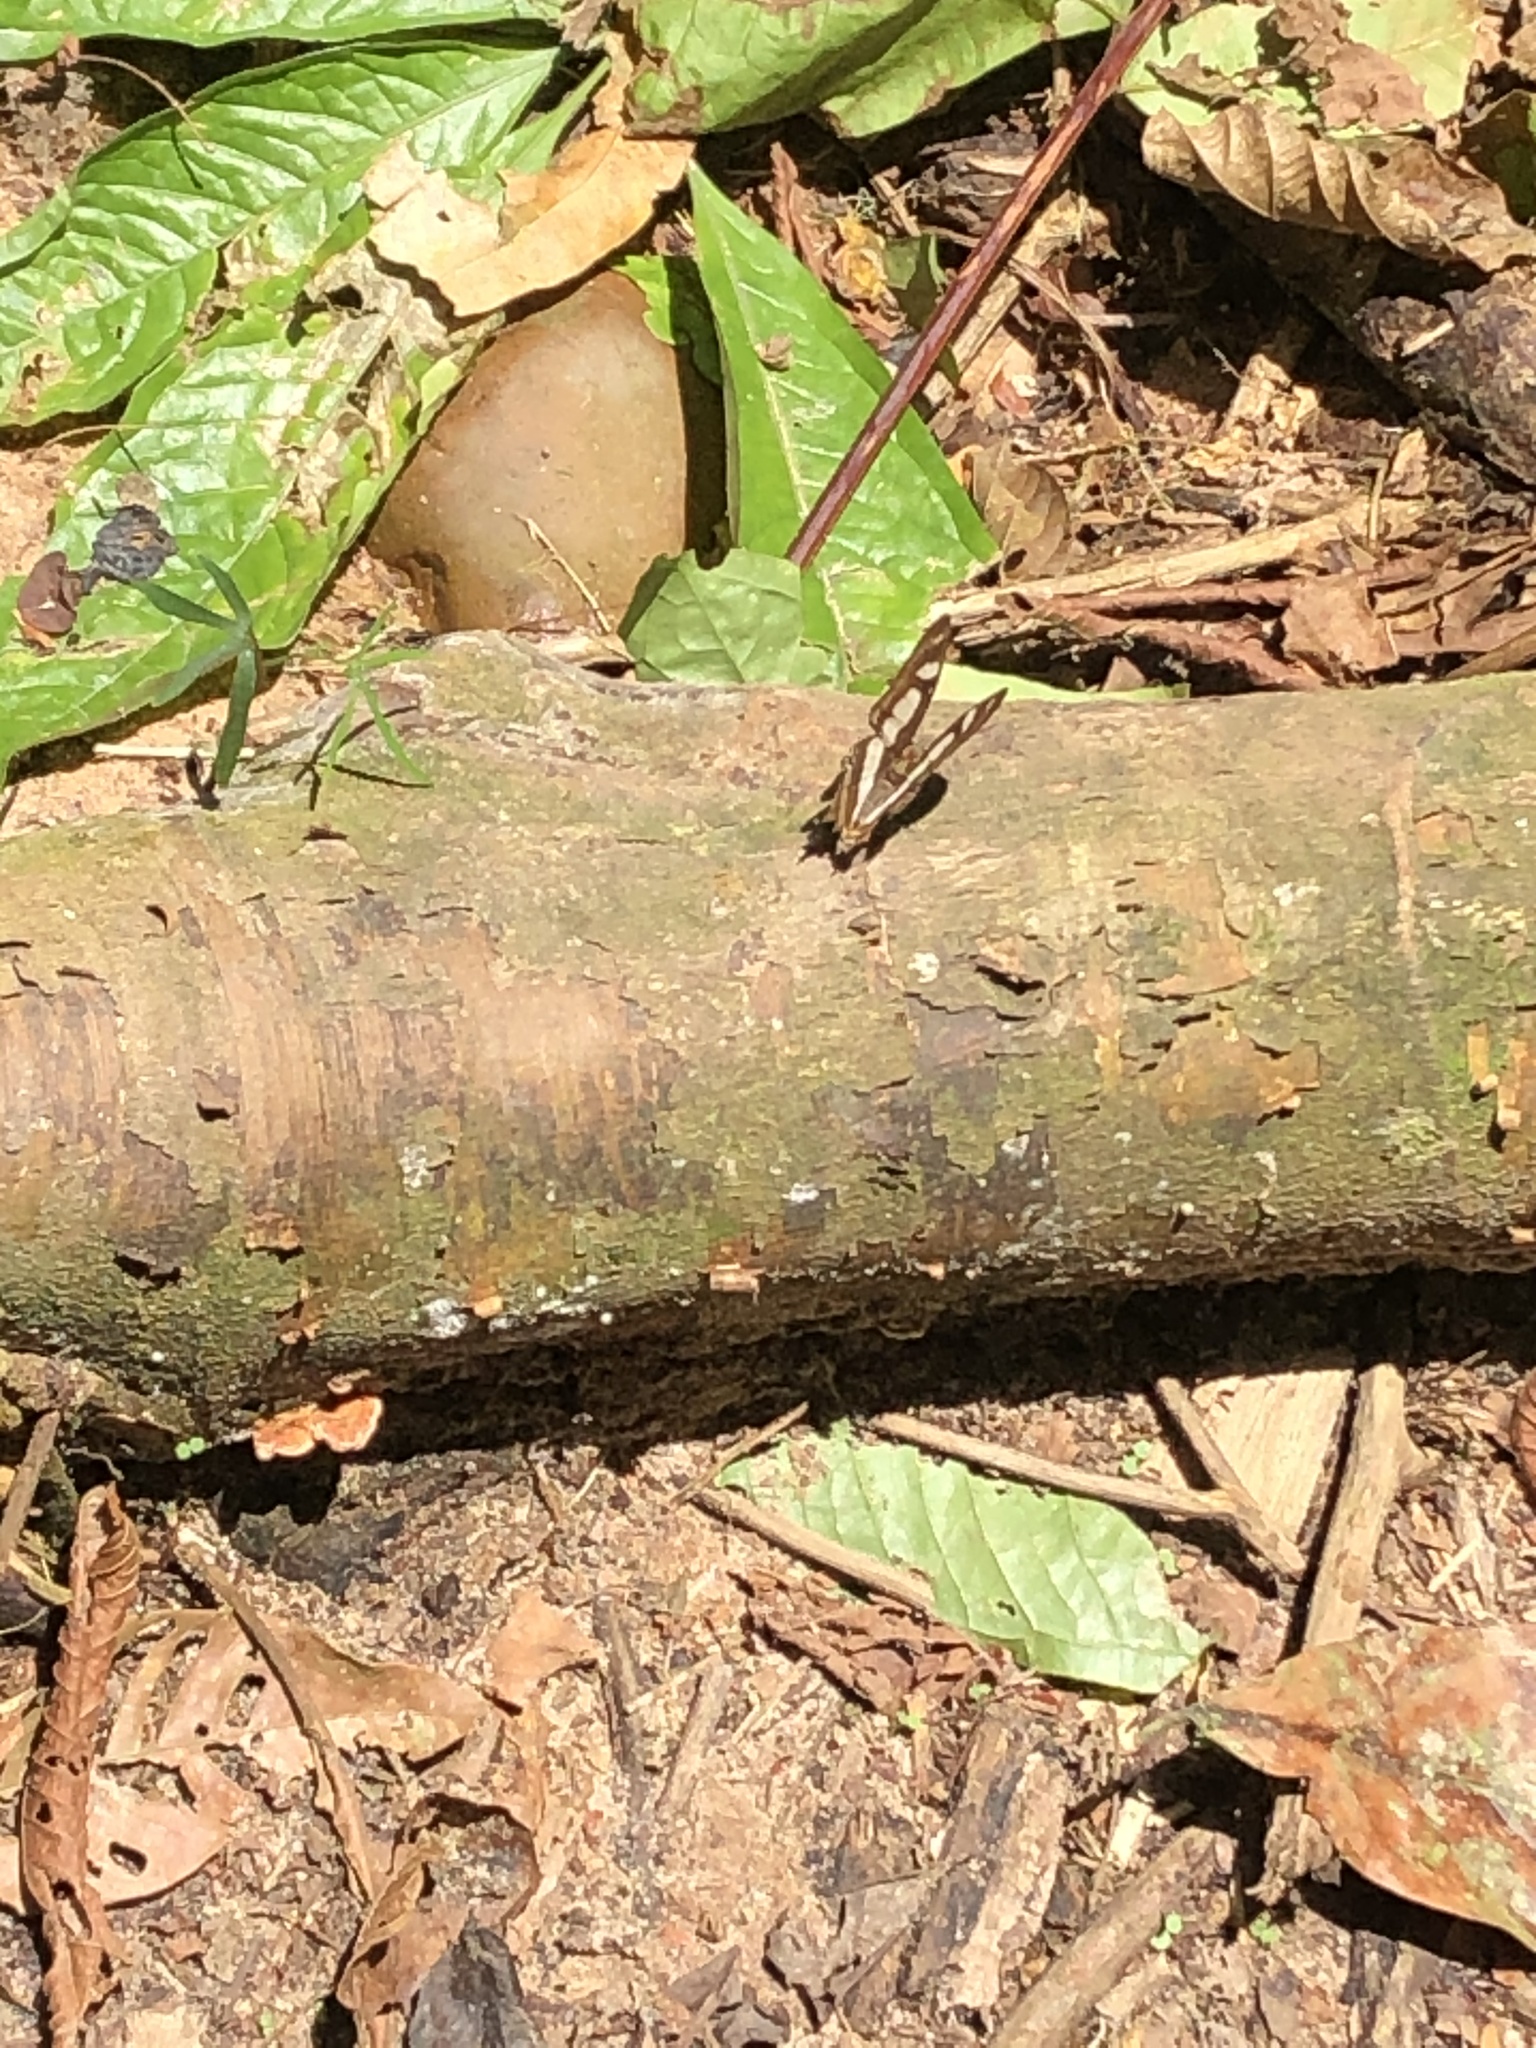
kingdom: Animalia
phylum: Arthropoda
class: Insecta
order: Lepidoptera
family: Nymphalidae
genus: Metamorpha
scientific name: Metamorpha elissa
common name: Elissa page
